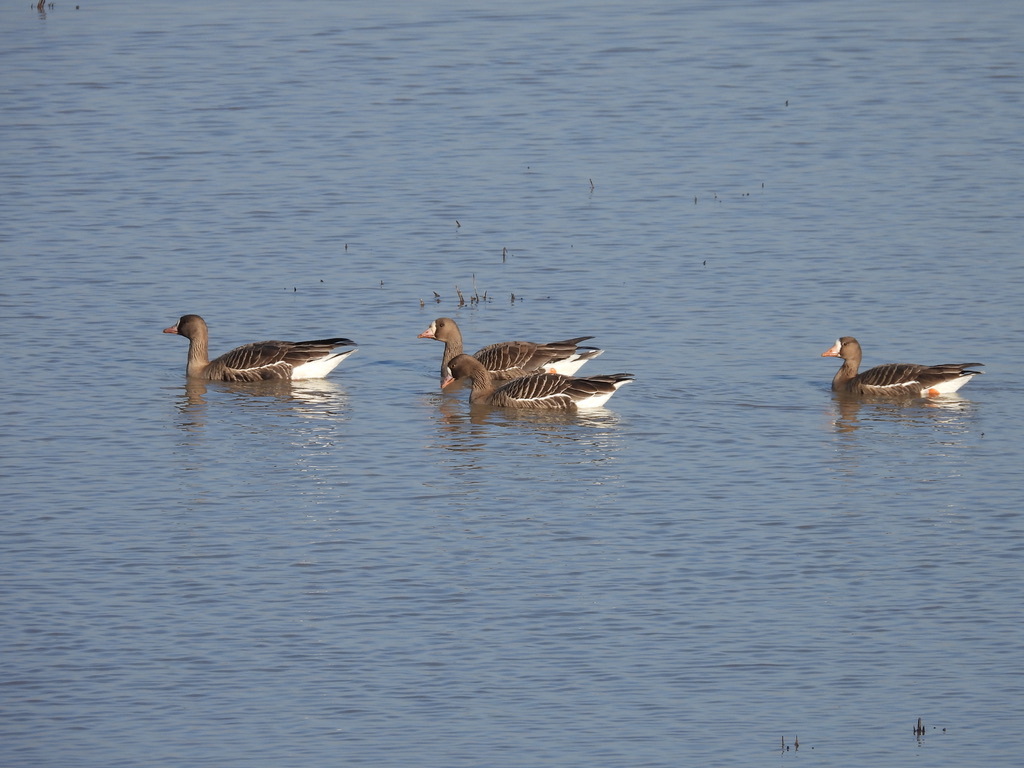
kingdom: Animalia
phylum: Chordata
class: Aves
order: Anseriformes
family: Anatidae
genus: Anser
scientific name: Anser albifrons
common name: Greater white-fronted goose
